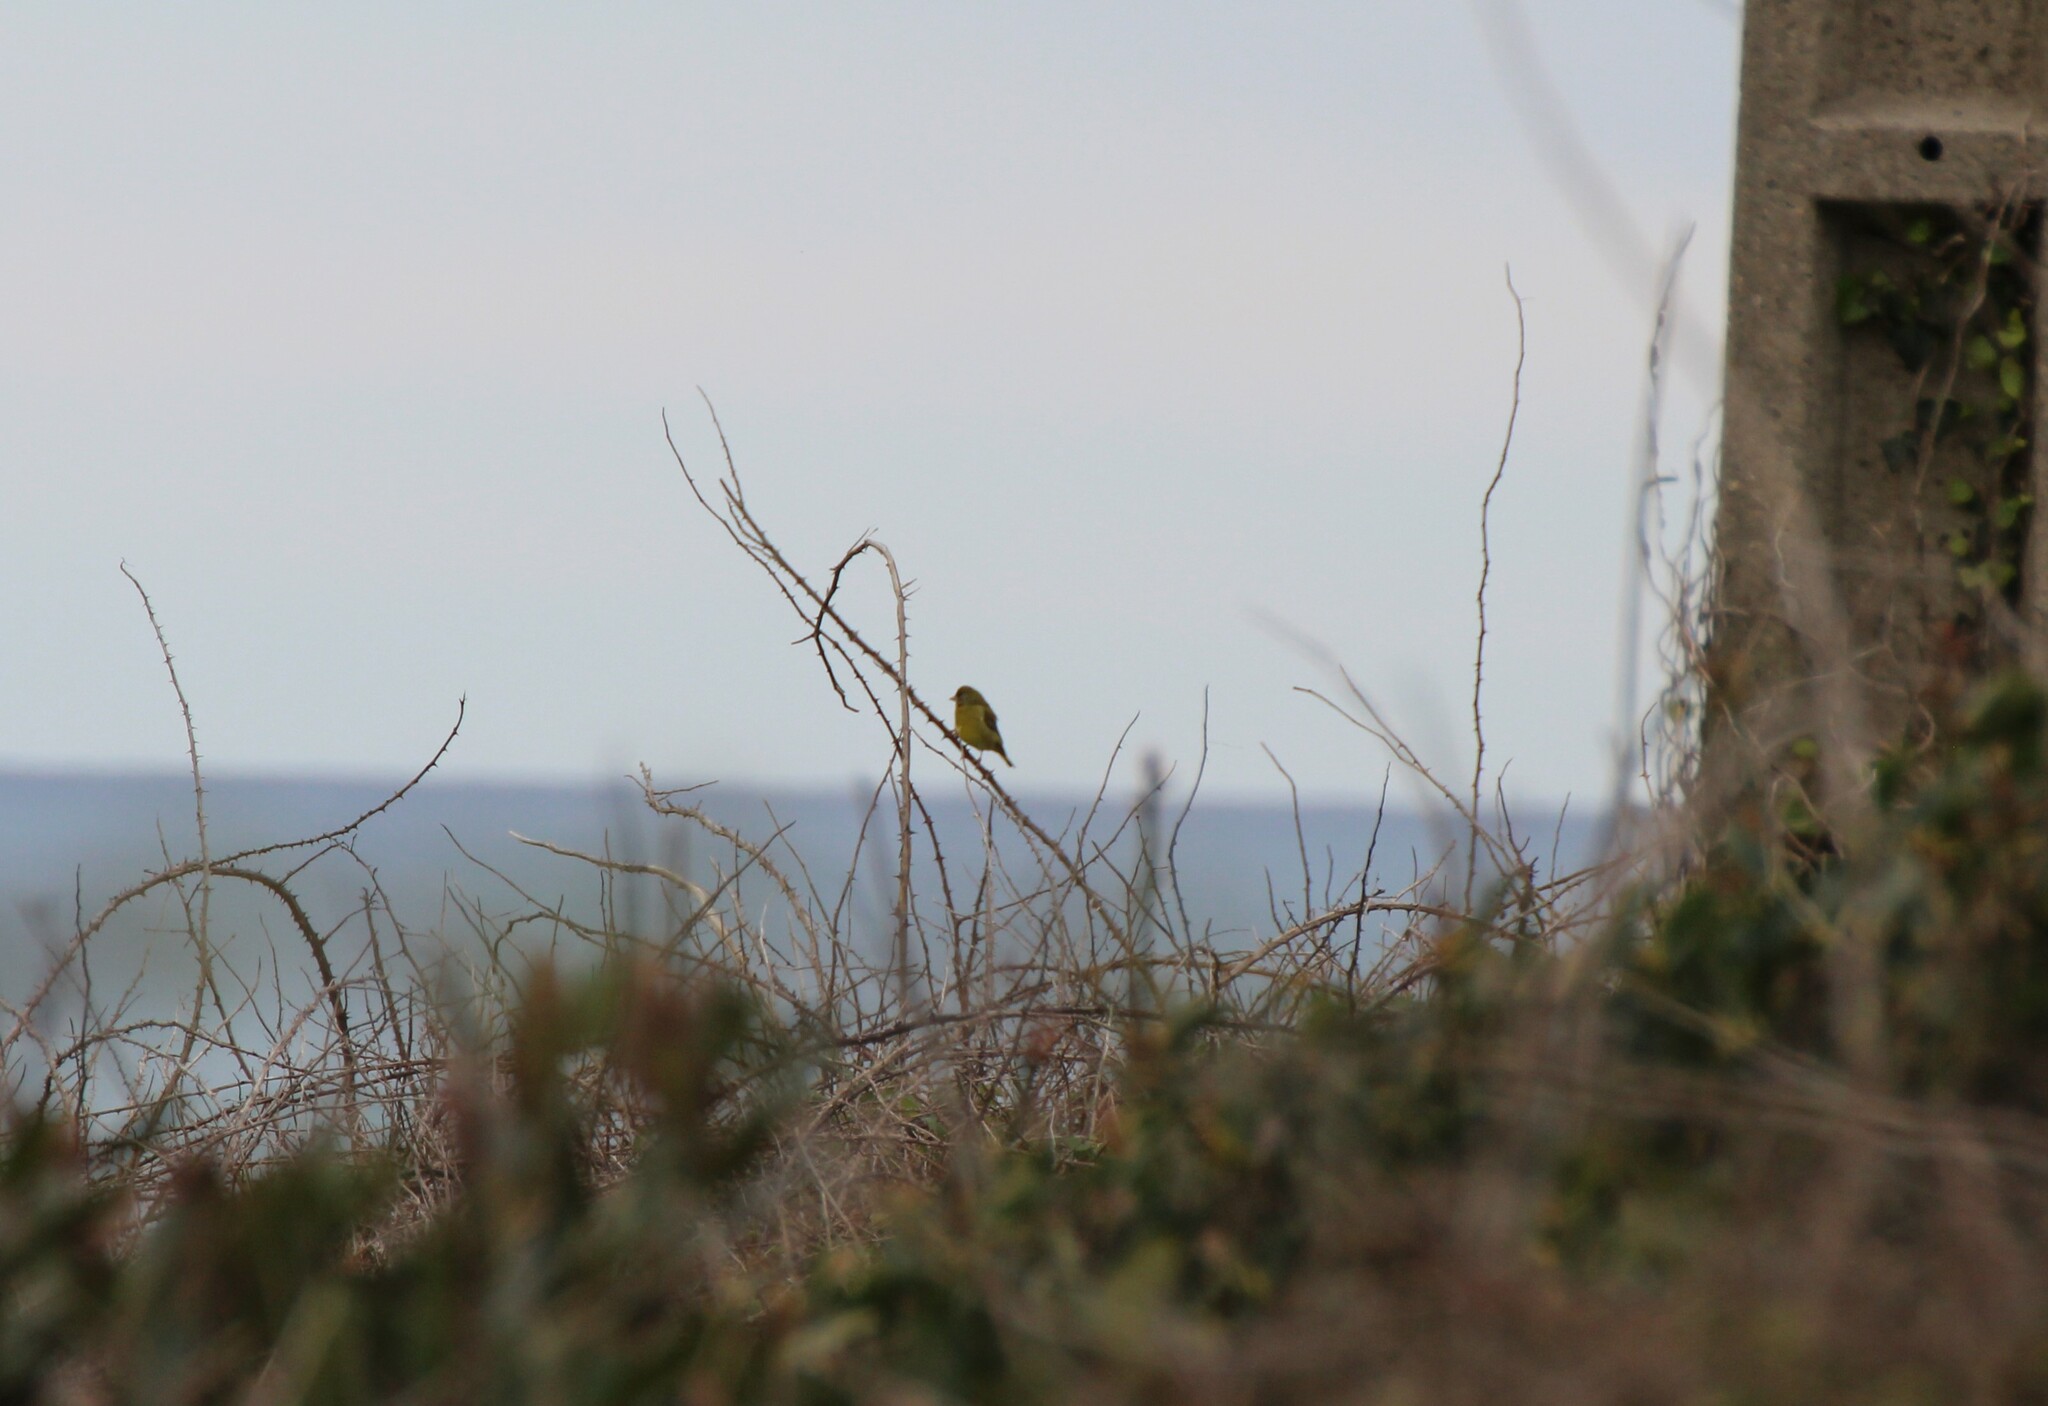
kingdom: Plantae
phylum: Tracheophyta
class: Liliopsida
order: Poales
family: Poaceae
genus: Chloris
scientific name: Chloris chloris
